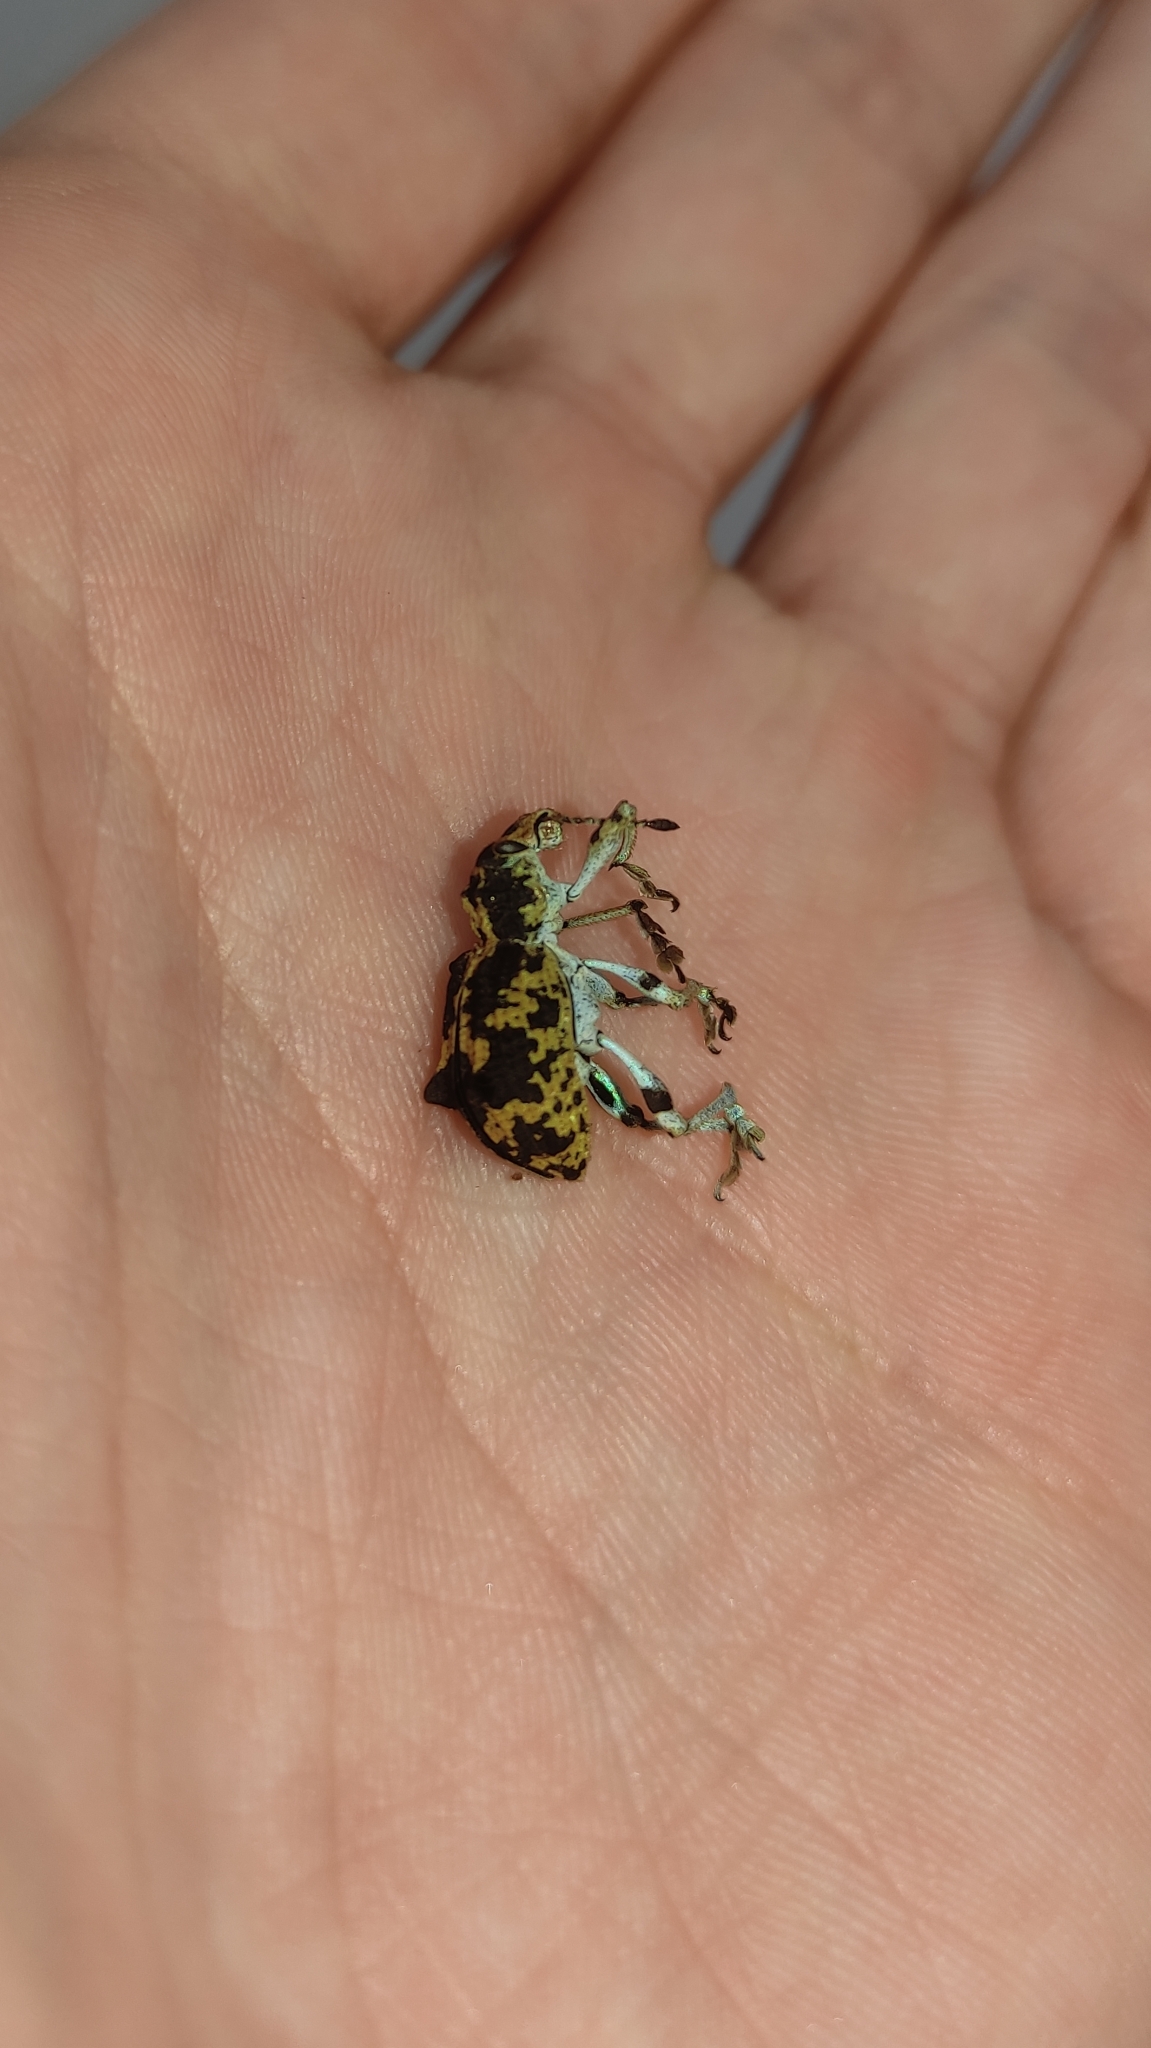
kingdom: Animalia
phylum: Arthropoda
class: Insecta
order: Coleoptera
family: Curculionidae
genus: Rhigus
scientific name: Rhigus dejeanii
